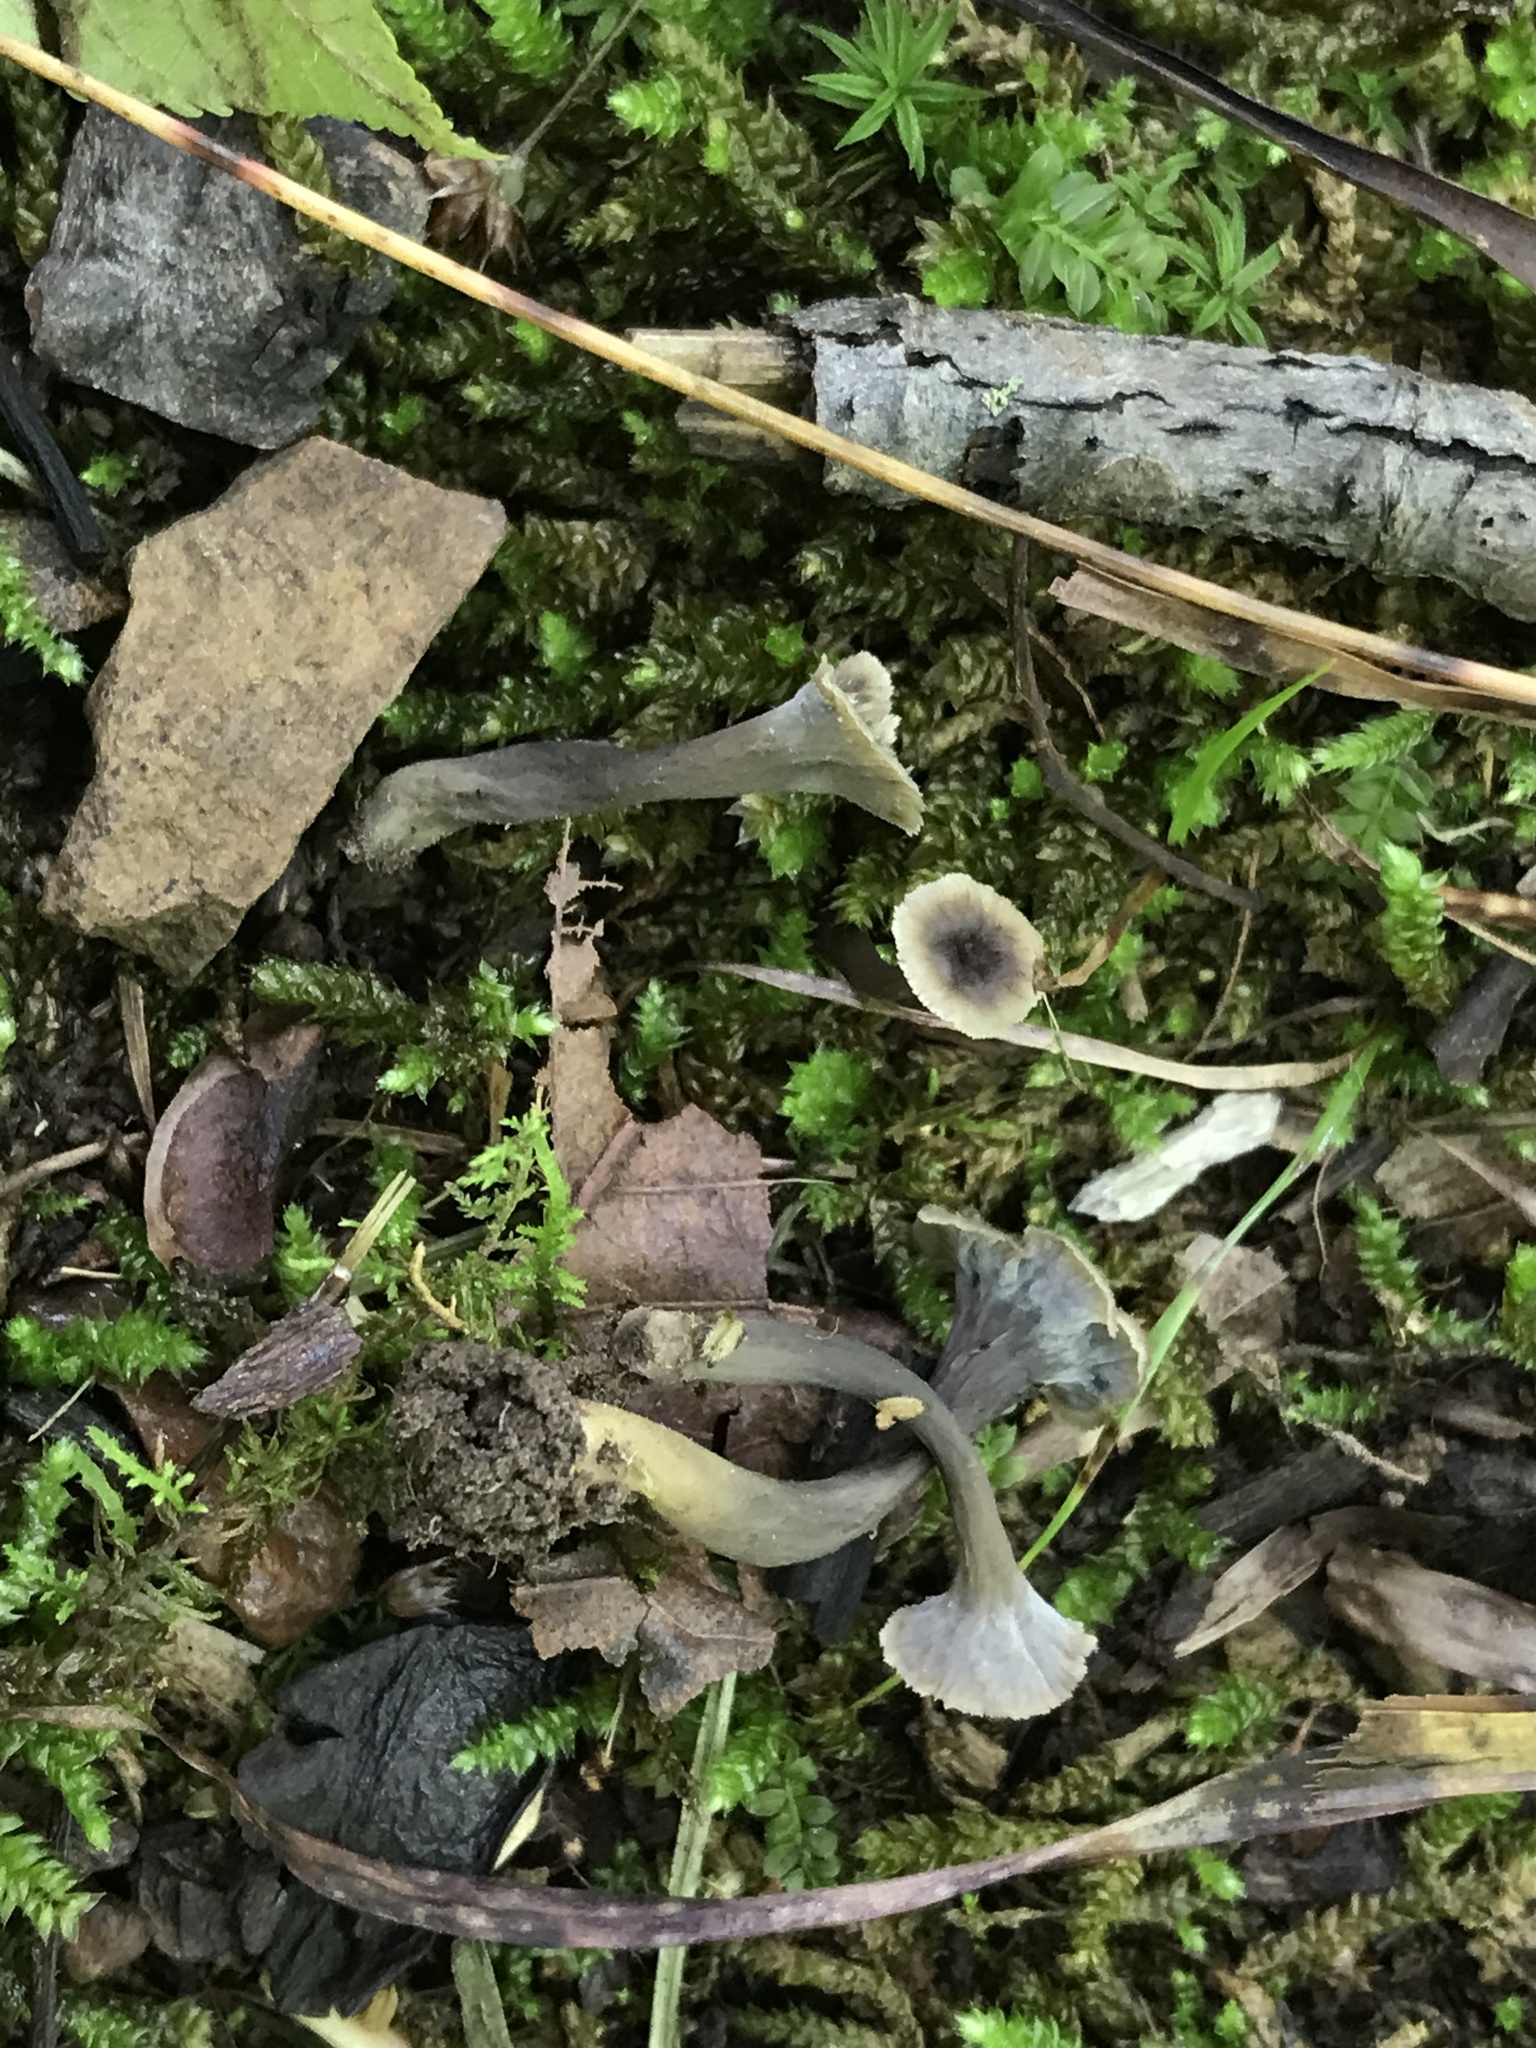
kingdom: Fungi
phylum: Basidiomycota
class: Agaricomycetes
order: Cantharellales
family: Hydnaceae
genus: Pseudocraterellus
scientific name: Pseudocraterellus calyculus
